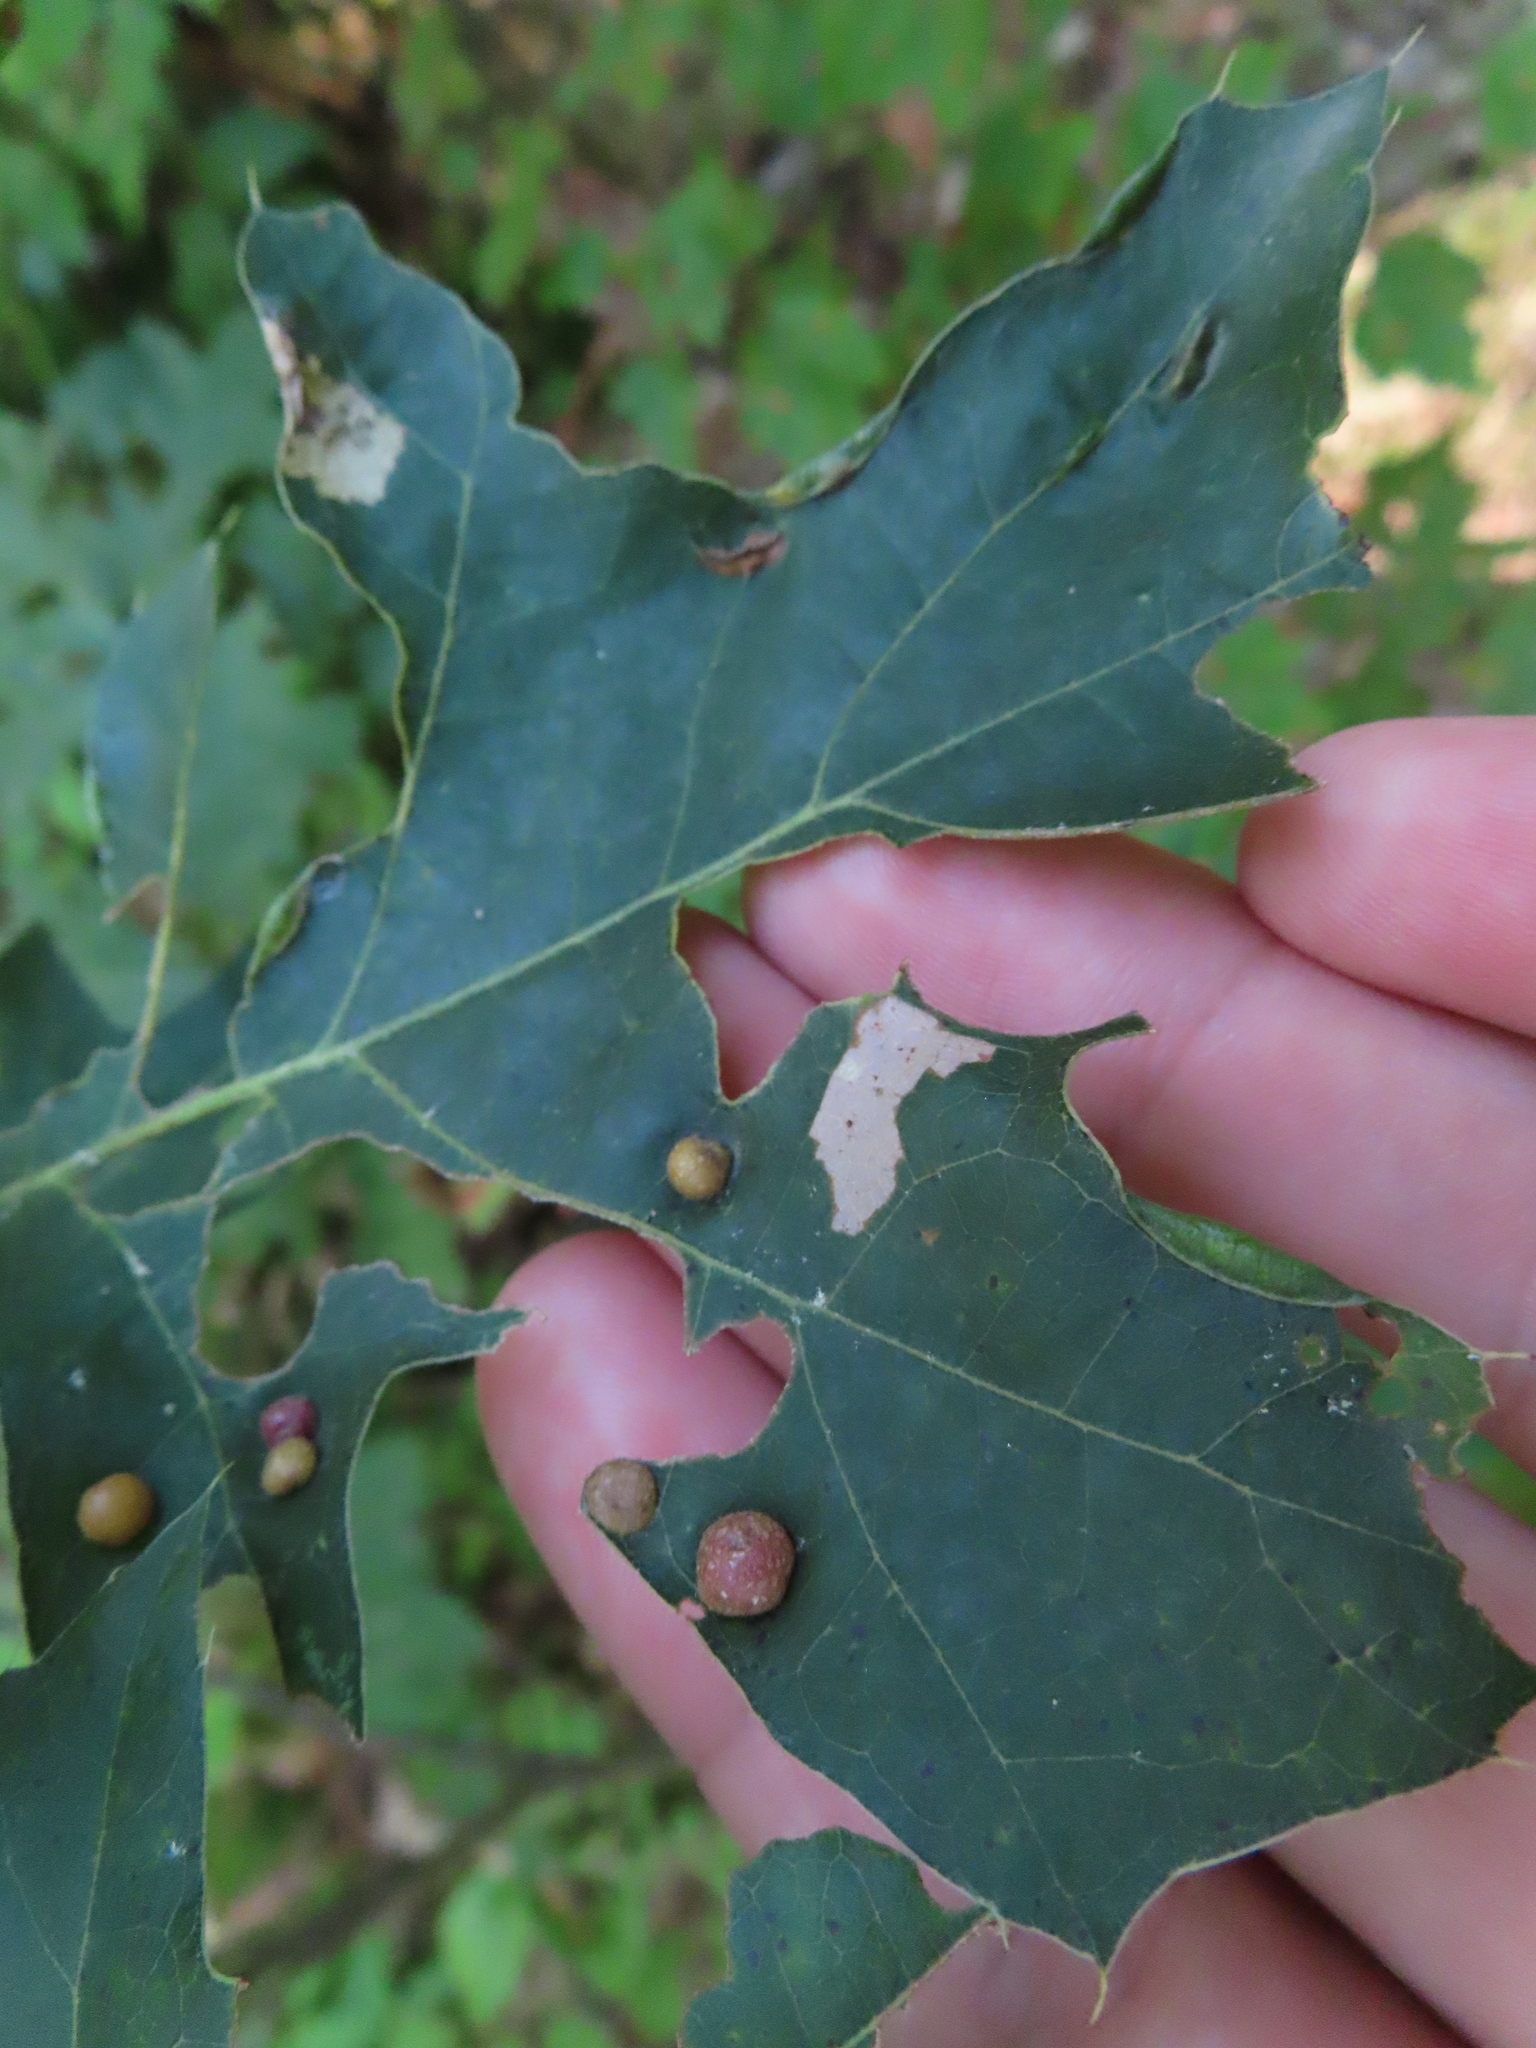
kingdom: Animalia
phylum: Arthropoda
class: Insecta
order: Diptera
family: Cecidomyiidae
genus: Polystepha
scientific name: Polystepha pilulae
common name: Oak leaf gall midge
